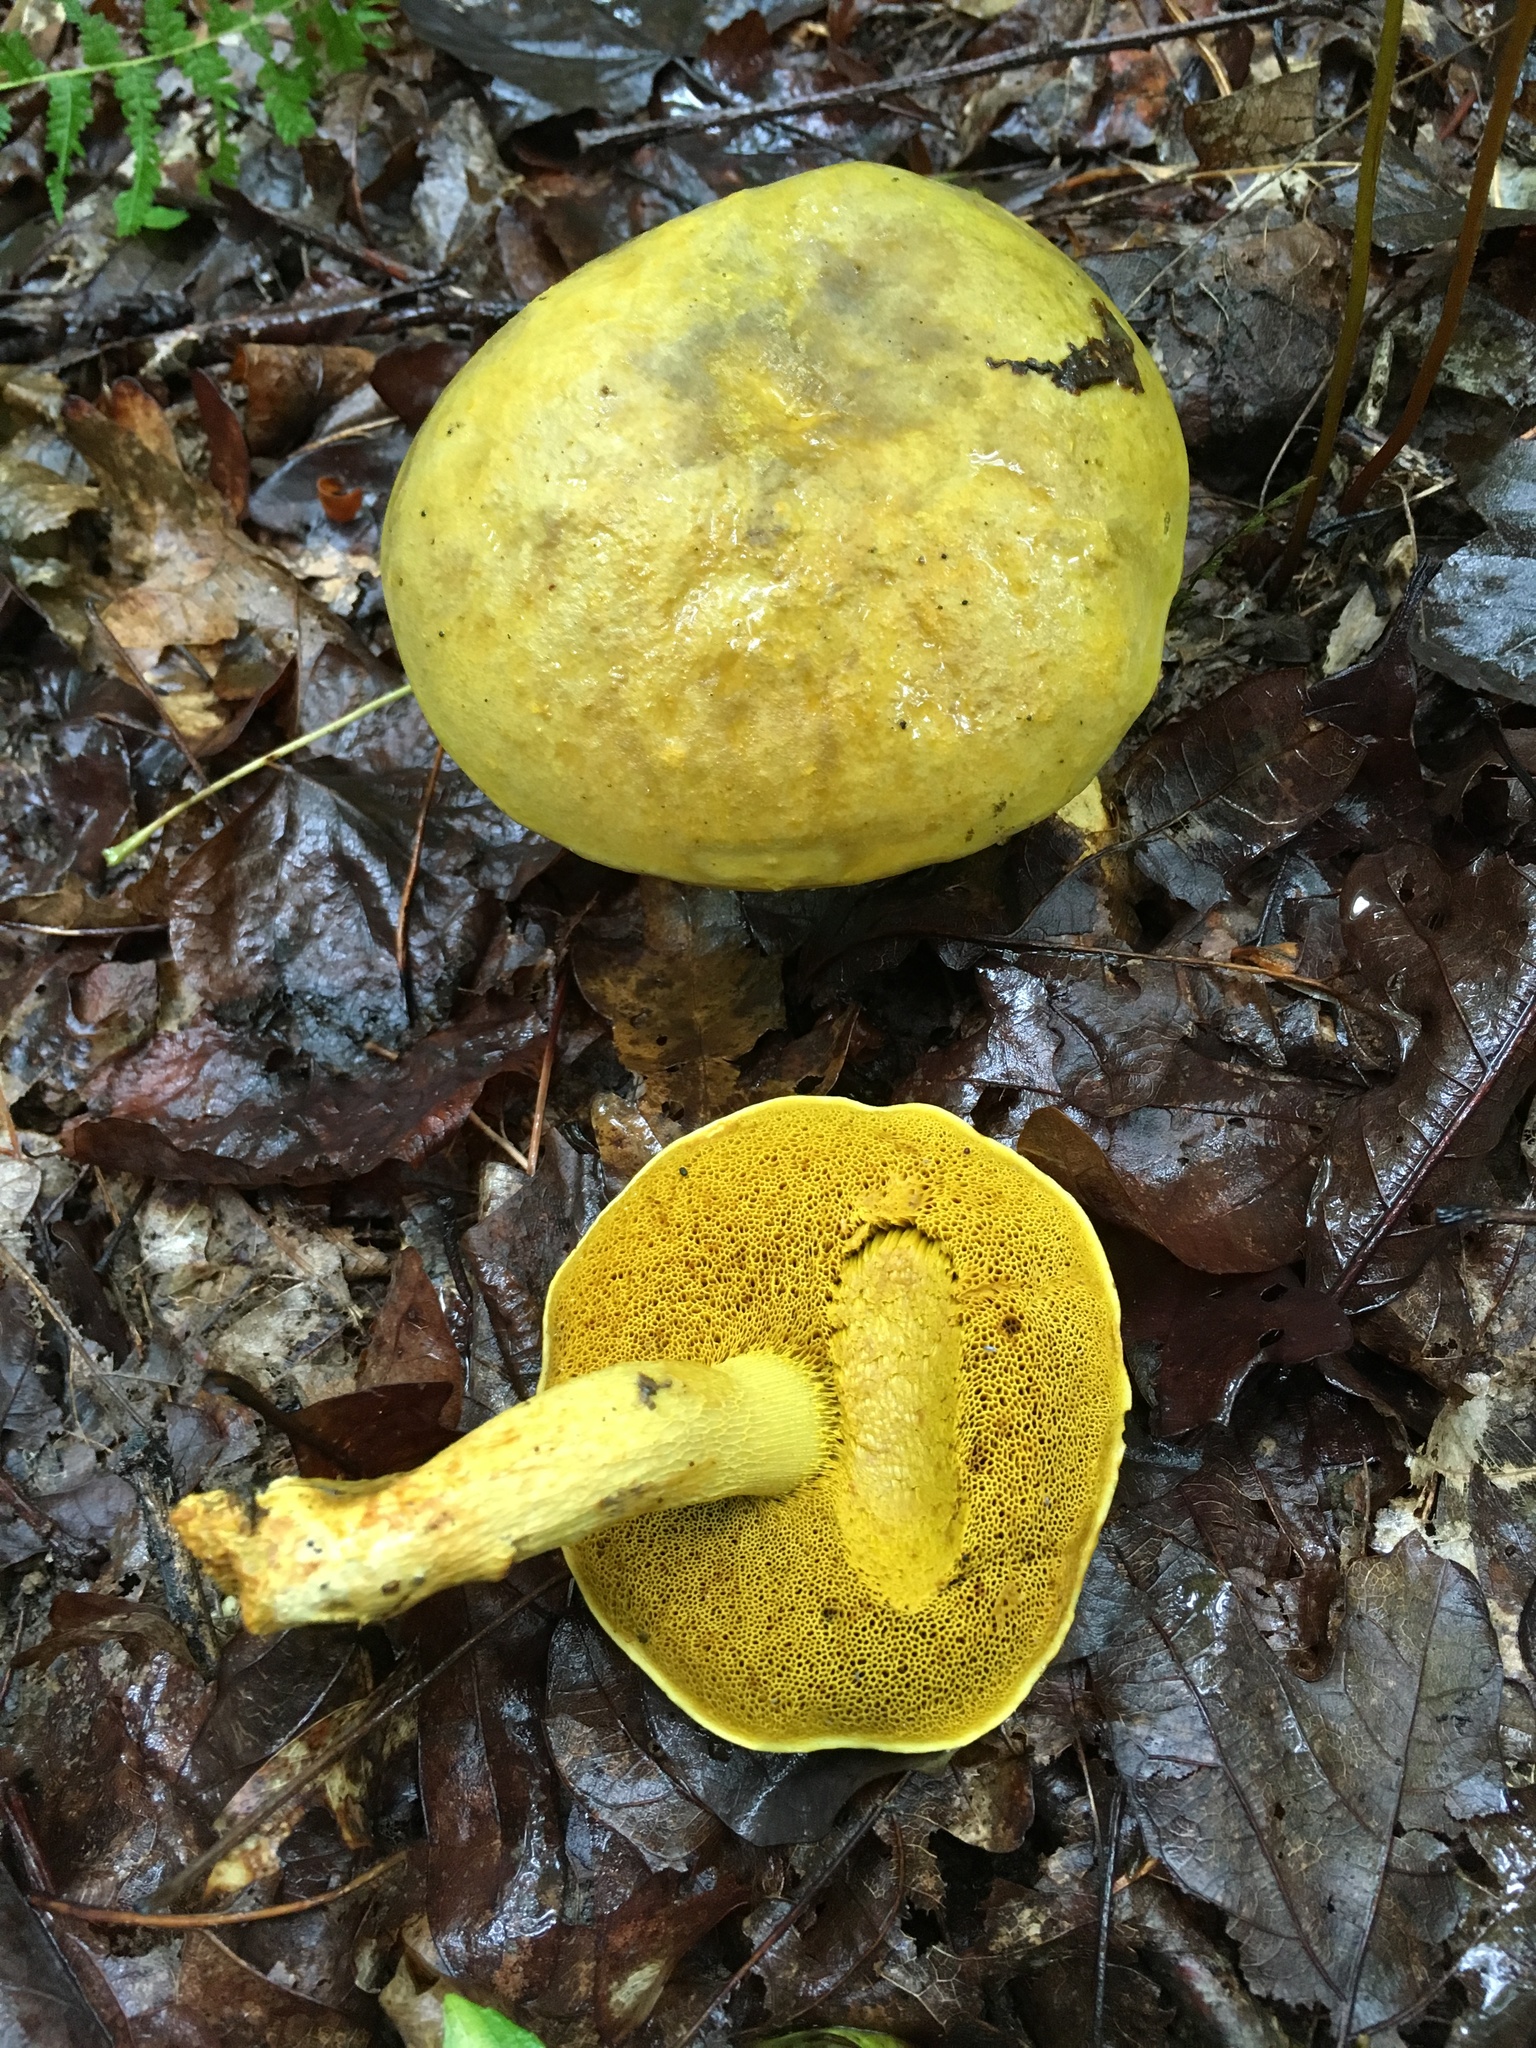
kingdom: Fungi
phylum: Basidiomycota
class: Agaricomycetes
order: Boletales
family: Boletaceae
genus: Retiboletus
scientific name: Retiboletus ornatipes
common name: Ornate-stalked bolete
